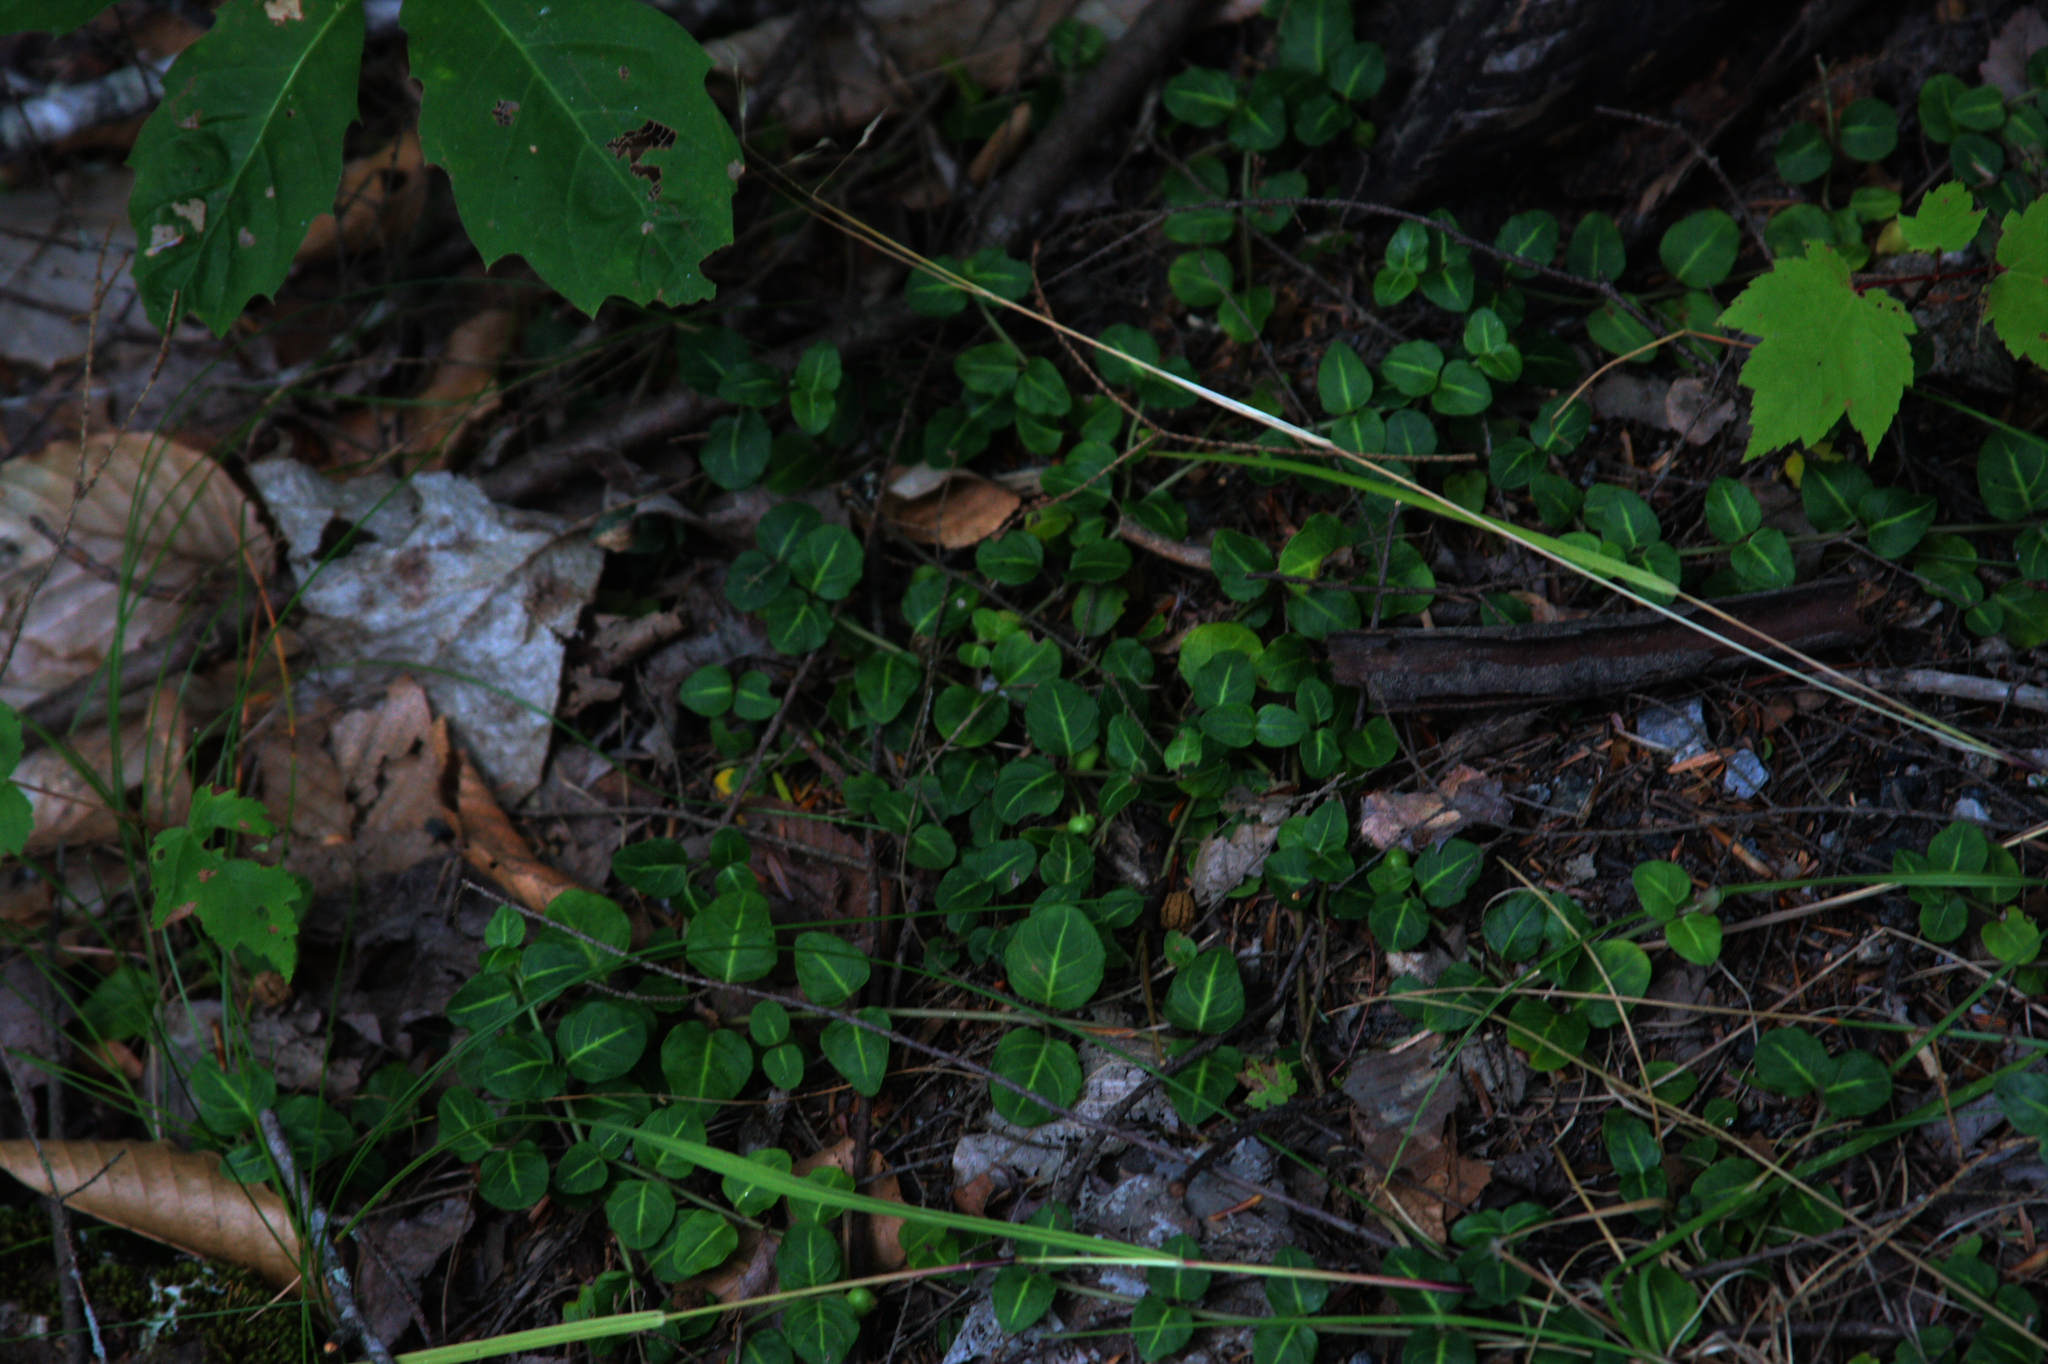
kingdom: Plantae
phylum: Tracheophyta
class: Magnoliopsida
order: Gentianales
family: Rubiaceae
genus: Mitchella
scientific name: Mitchella repens
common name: Partridge-berry
